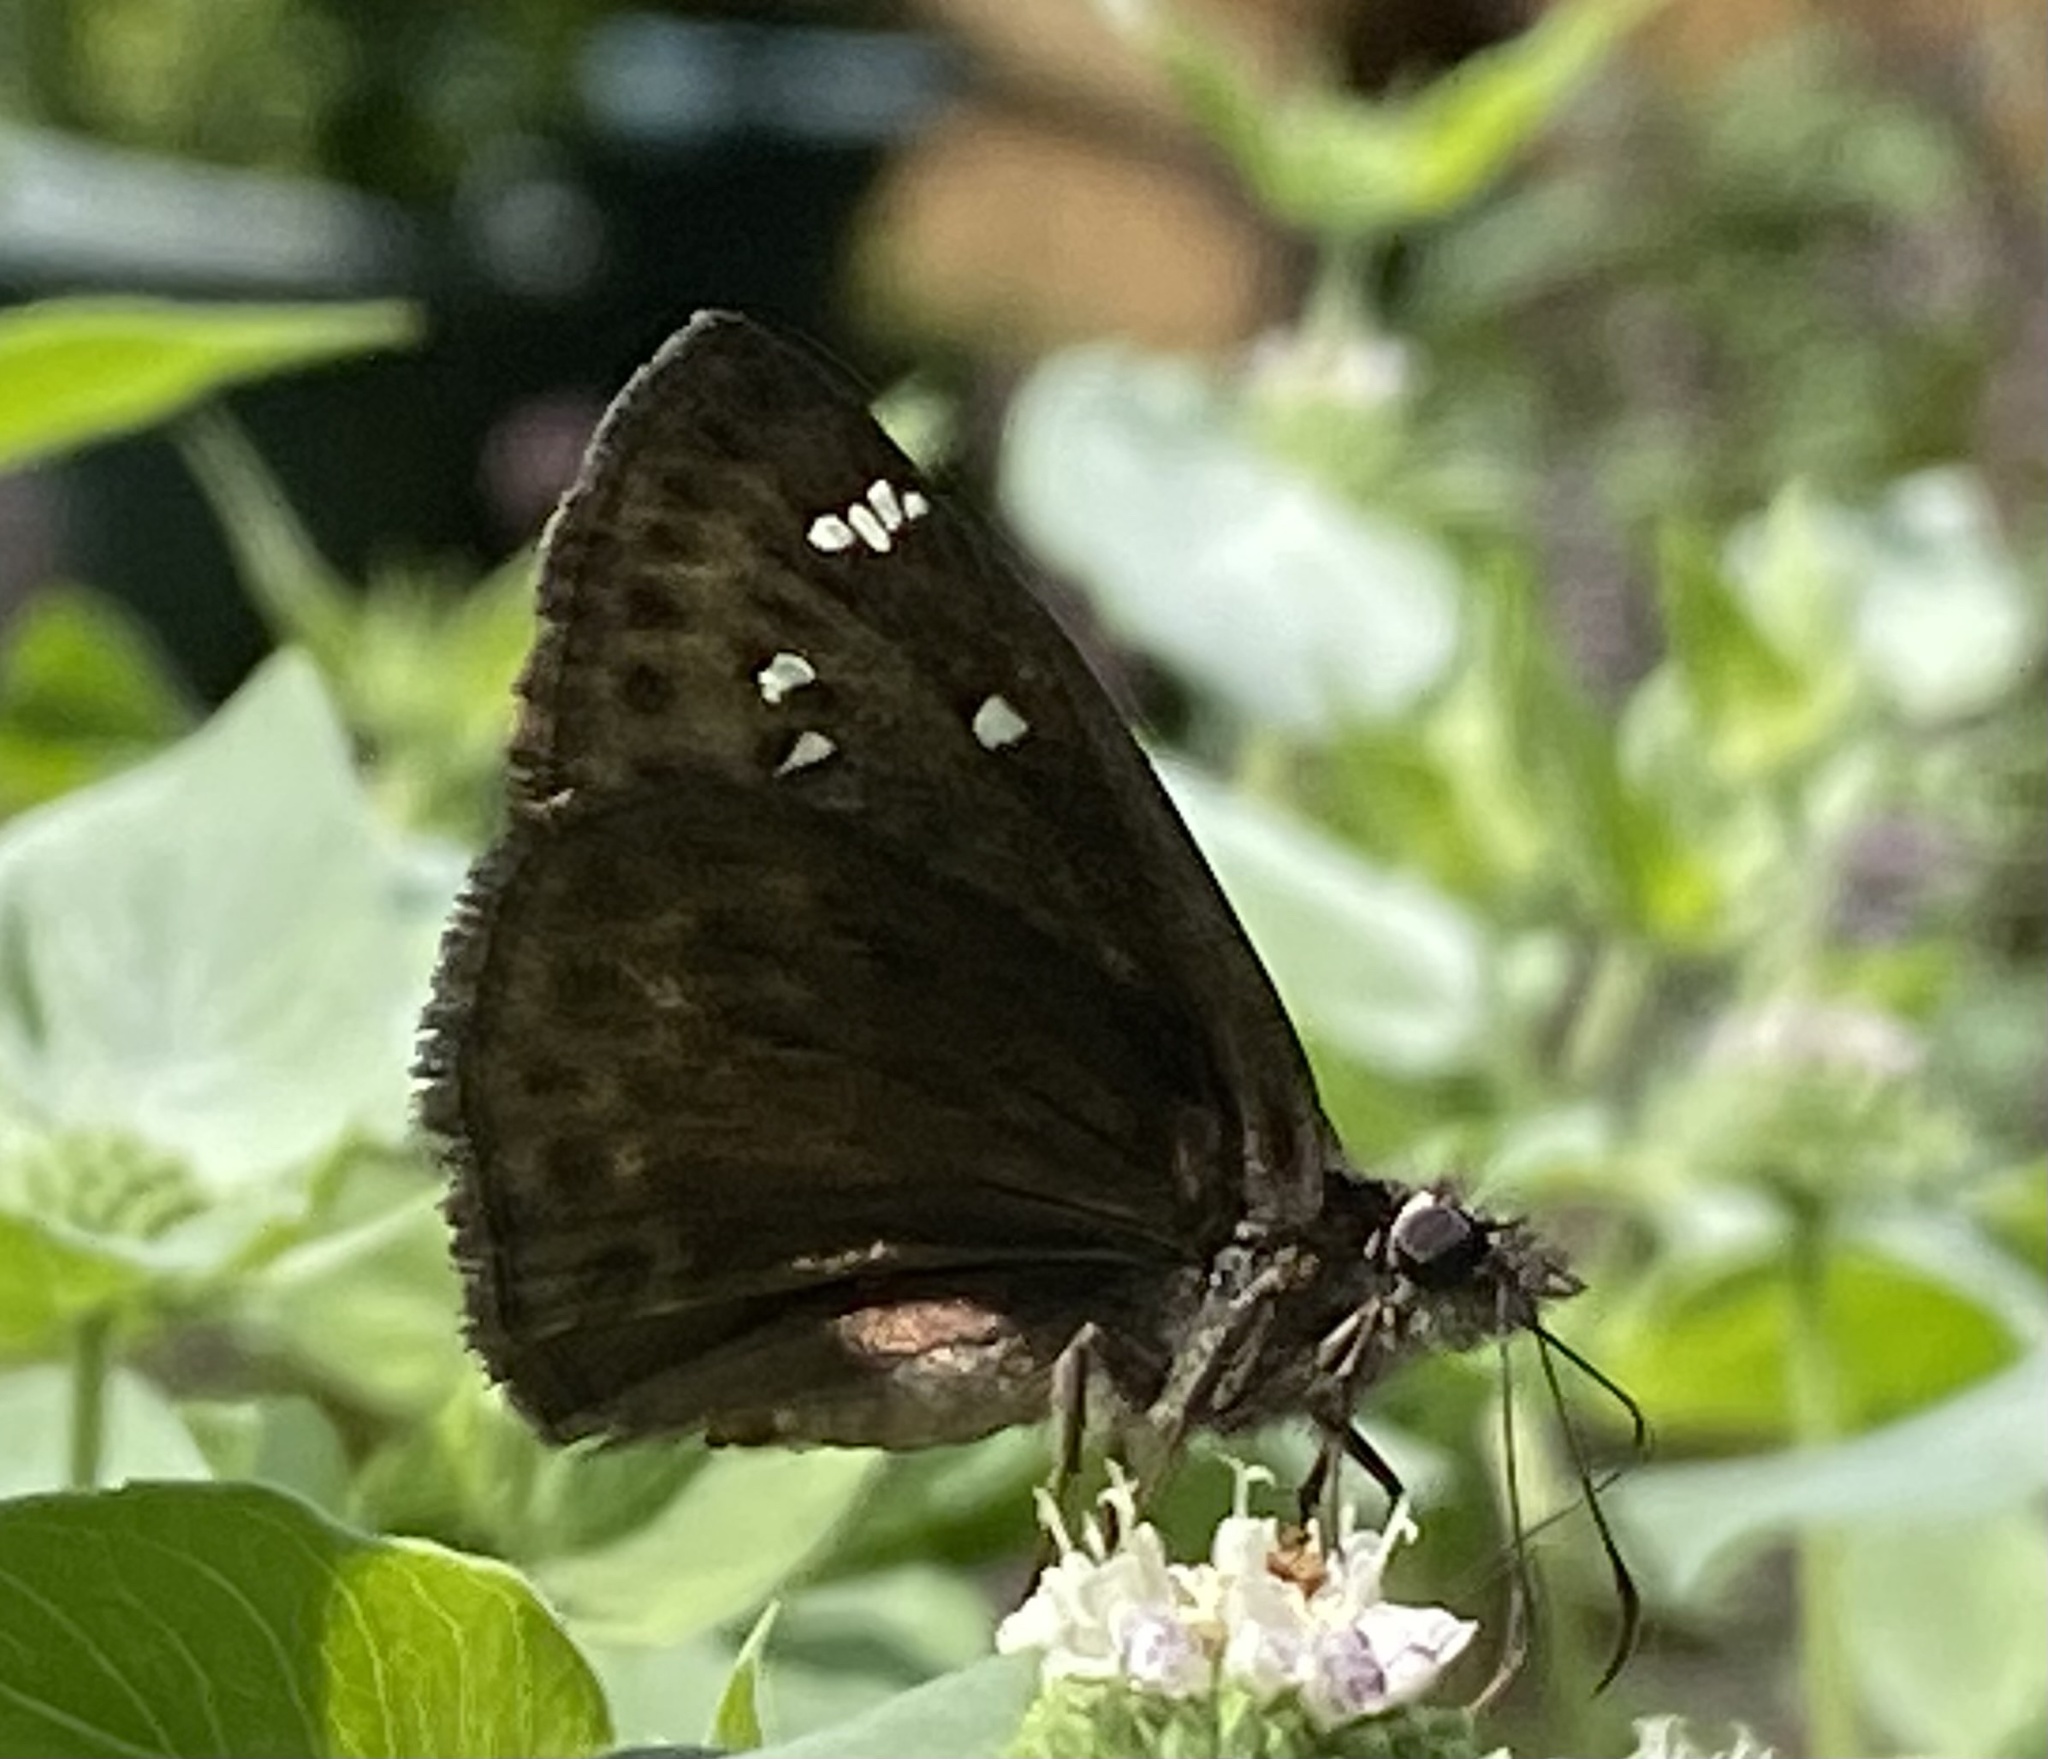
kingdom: Animalia
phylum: Arthropoda
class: Insecta
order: Lepidoptera
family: Hesperiidae
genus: Erynnis
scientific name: Erynnis horatius
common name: Horace's duskywing
